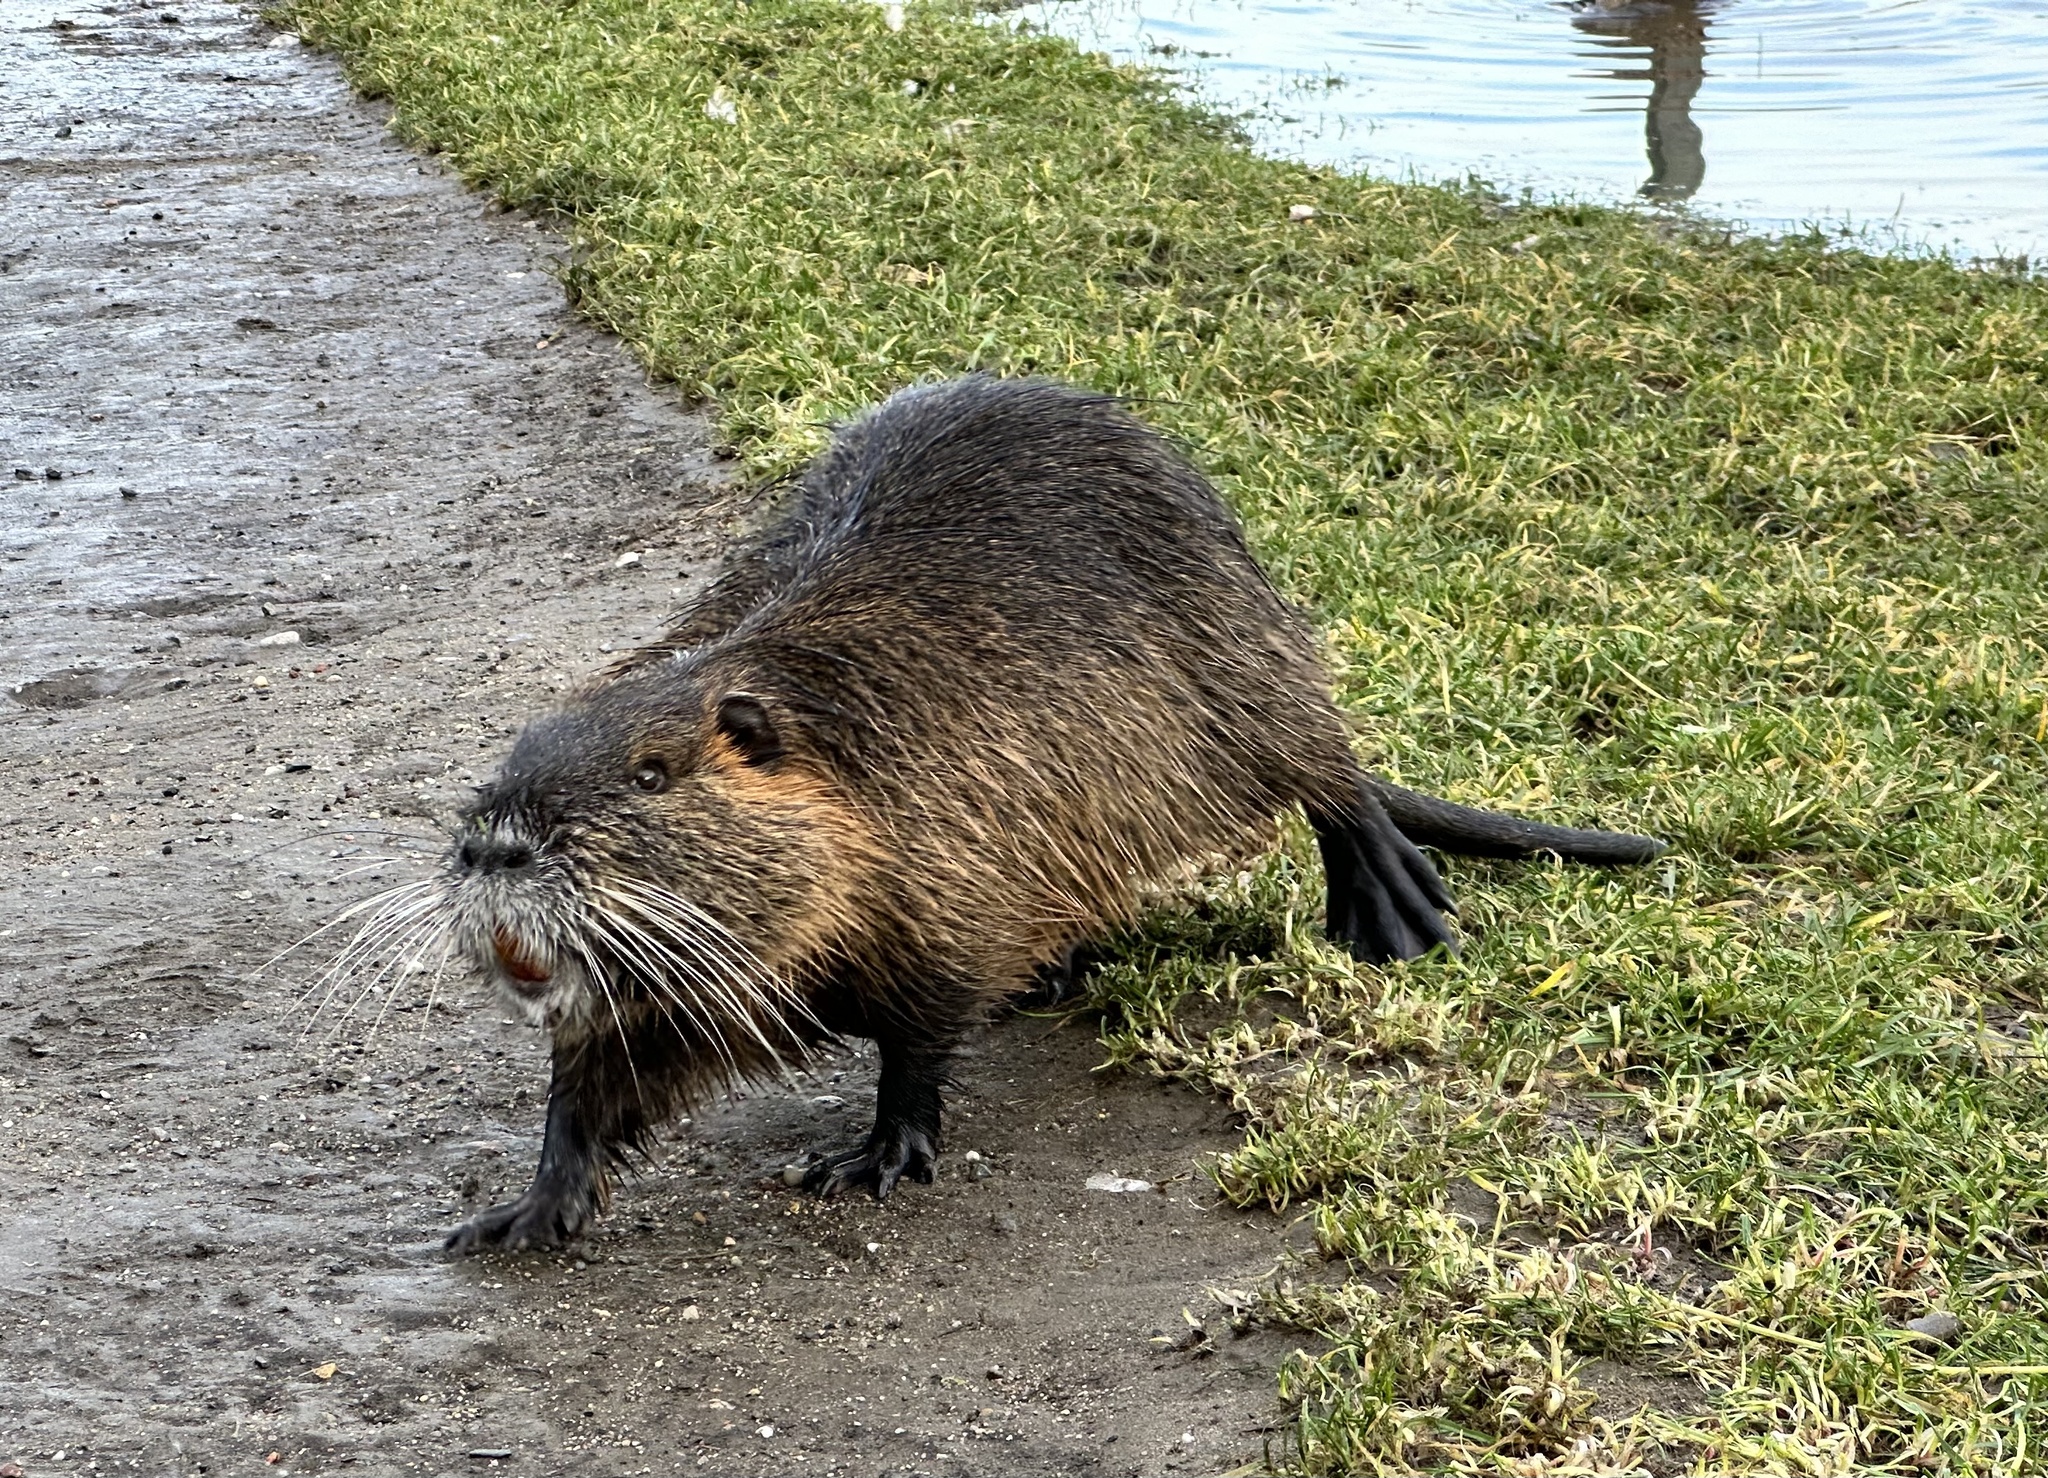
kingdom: Animalia
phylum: Chordata
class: Mammalia
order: Rodentia
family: Myocastoridae
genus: Myocastor
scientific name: Myocastor coypus
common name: Coypu
